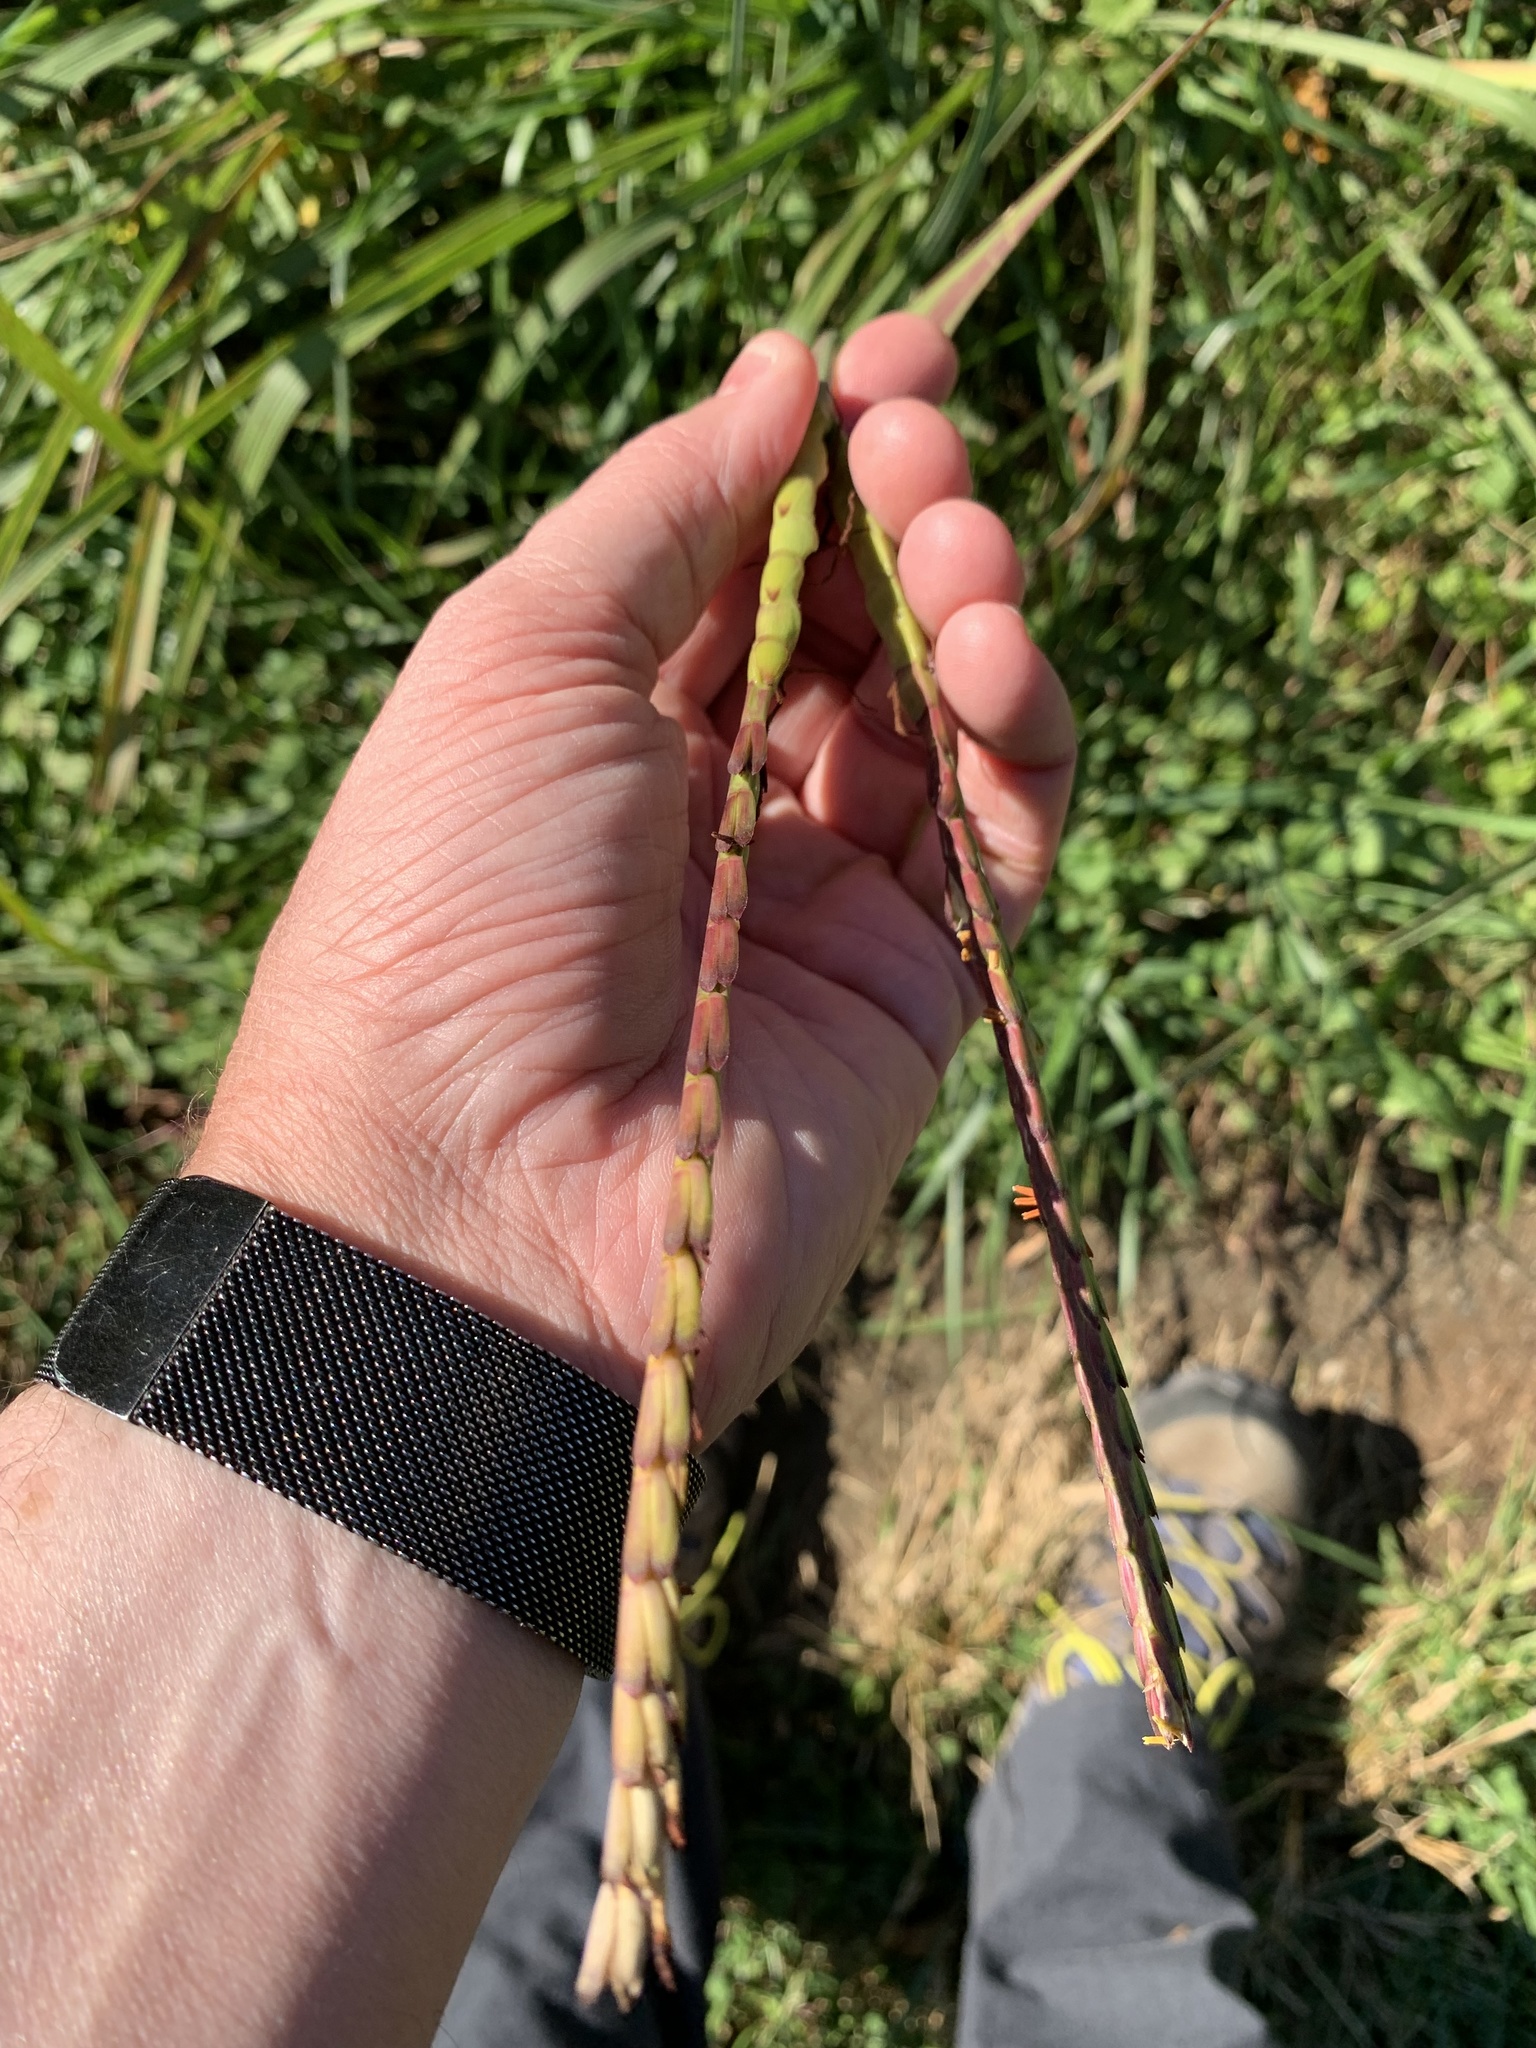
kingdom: Plantae
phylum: Tracheophyta
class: Liliopsida
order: Poales
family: Poaceae
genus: Tripsacum
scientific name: Tripsacum dactyloides
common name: Buffalo-grass
